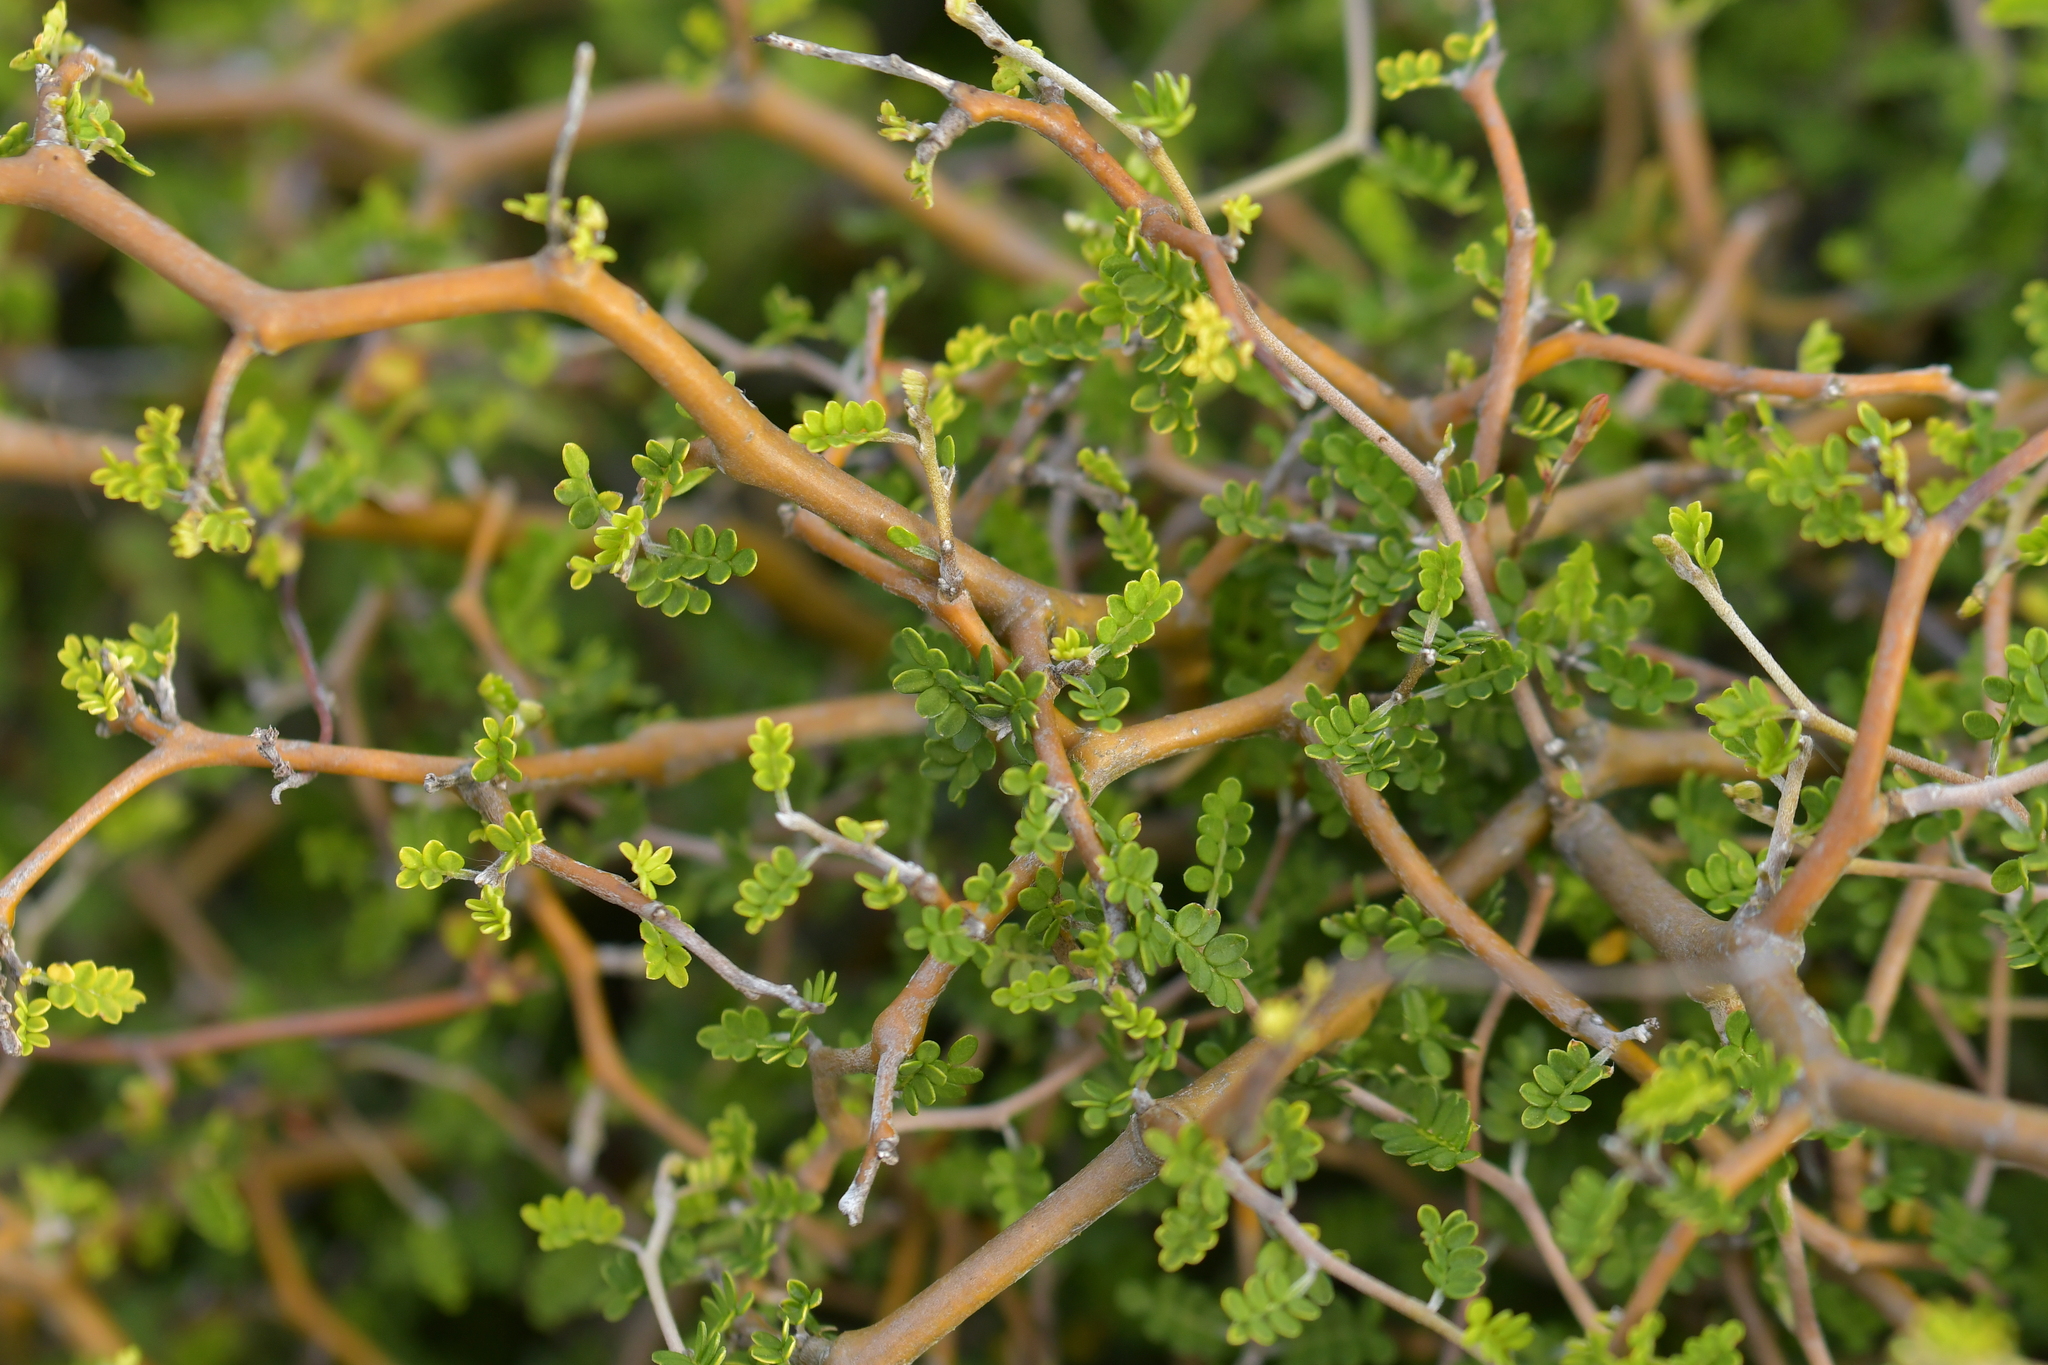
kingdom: Plantae
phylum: Tracheophyta
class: Magnoliopsida
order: Fabales
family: Fabaceae
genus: Sophora
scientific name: Sophora prostrata
